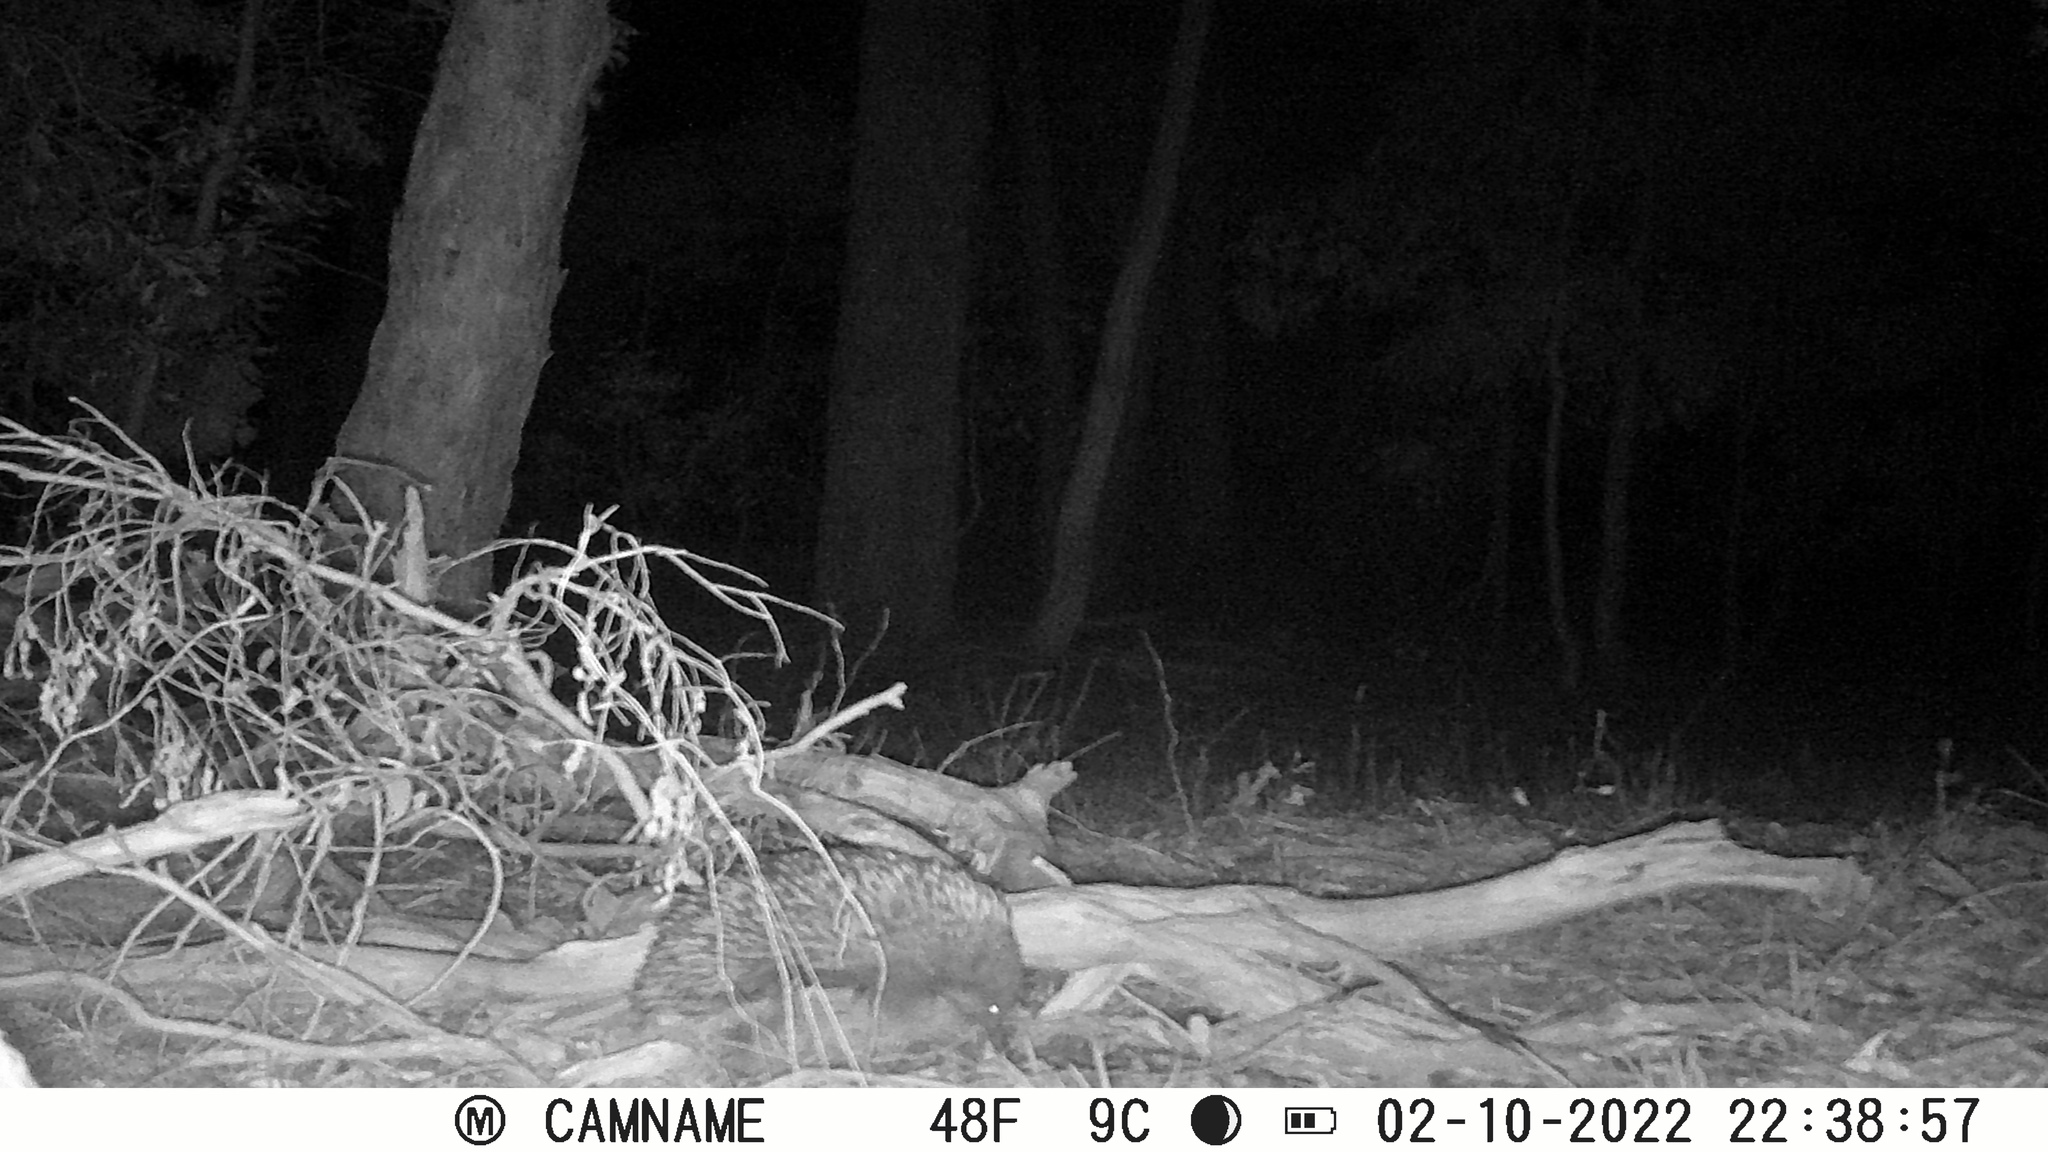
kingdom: Animalia
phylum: Chordata
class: Mammalia
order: Monotremata
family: Tachyglossidae
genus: Tachyglossus
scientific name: Tachyglossus aculeatus
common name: Short-beaked echidna
